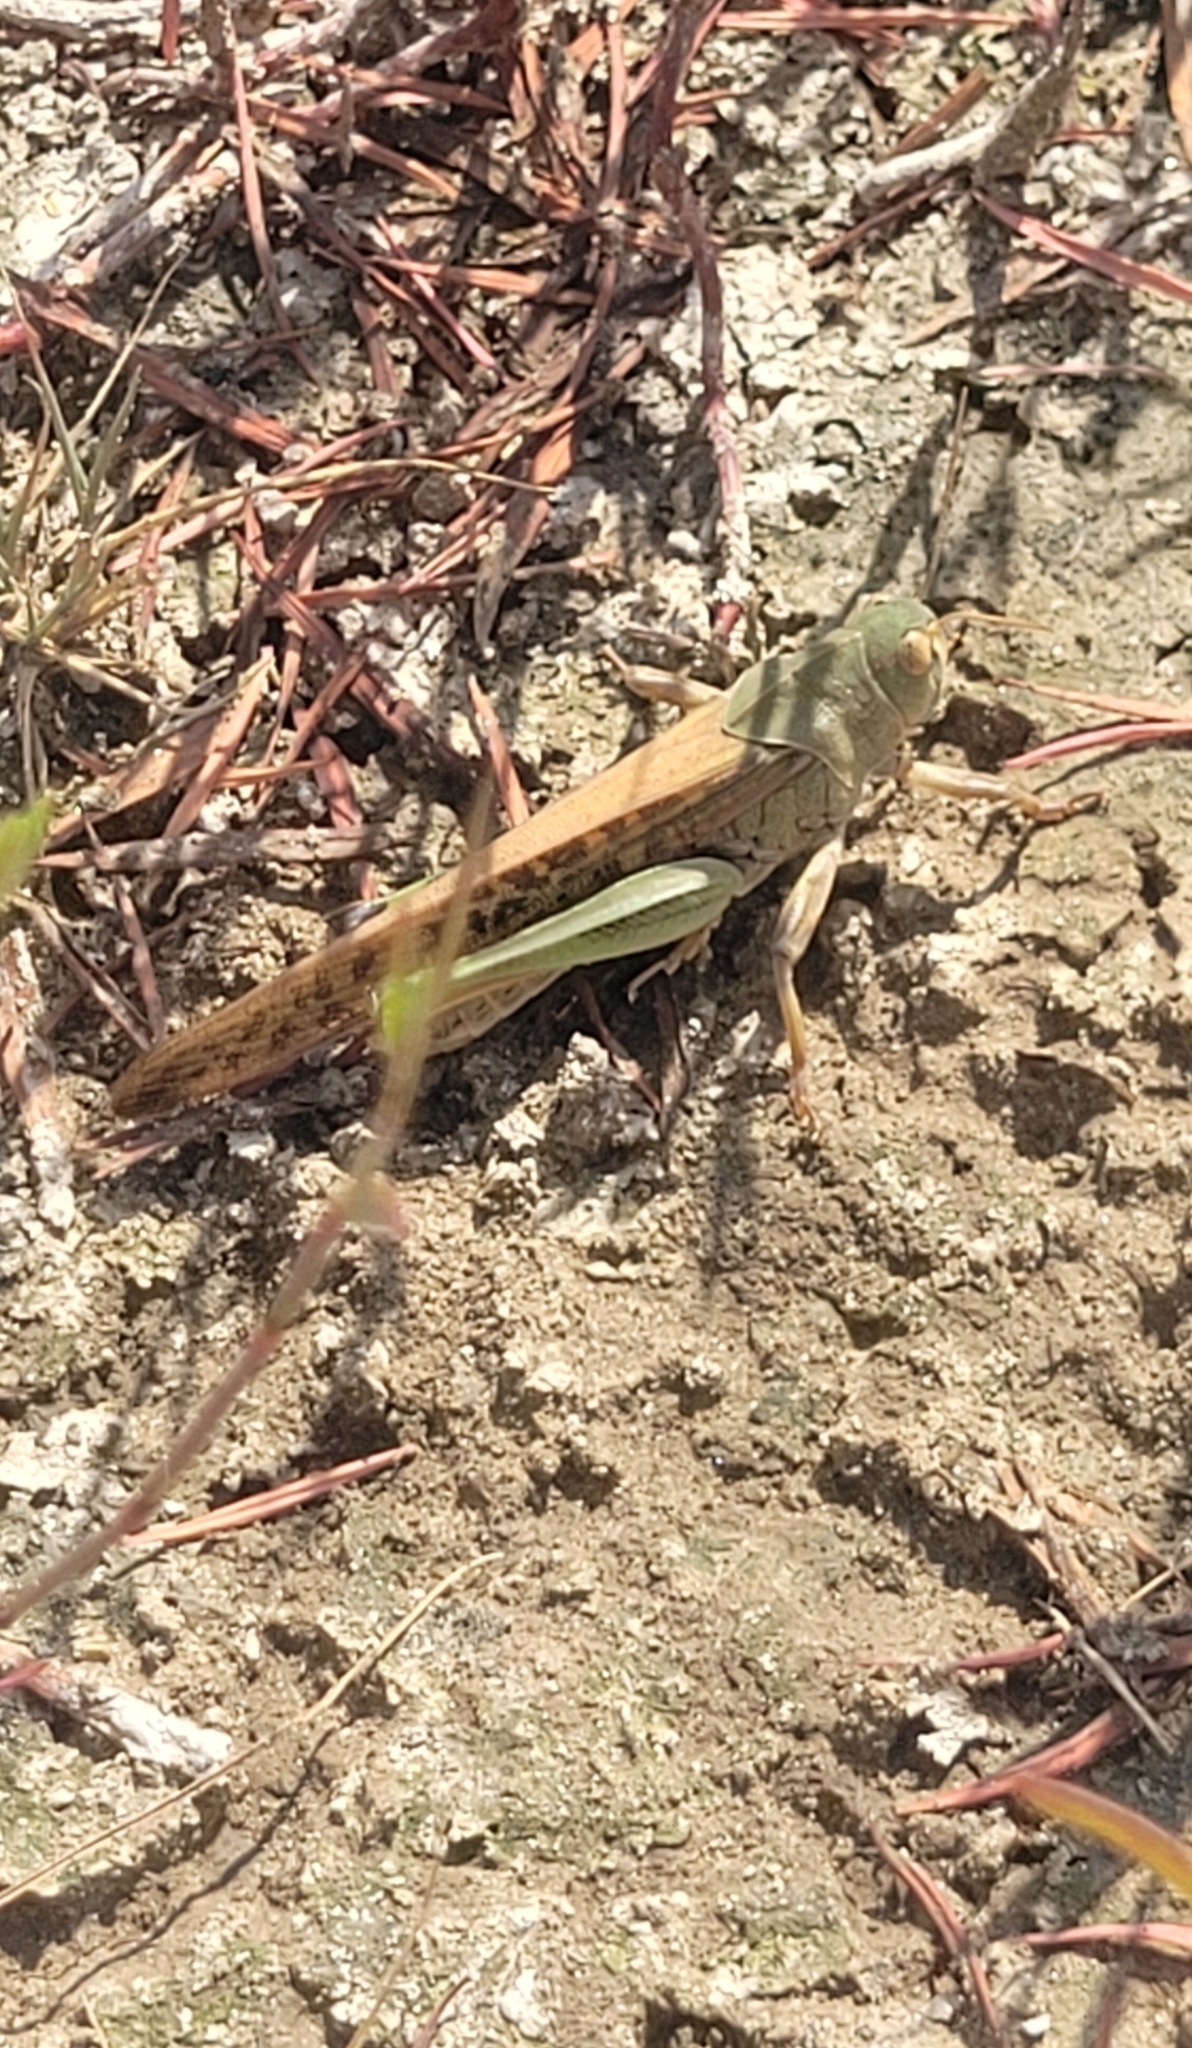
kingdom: Animalia
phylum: Arthropoda
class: Insecta
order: Orthoptera
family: Acrididae
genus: Locusta
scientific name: Locusta migratoria
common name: Migratory locust
